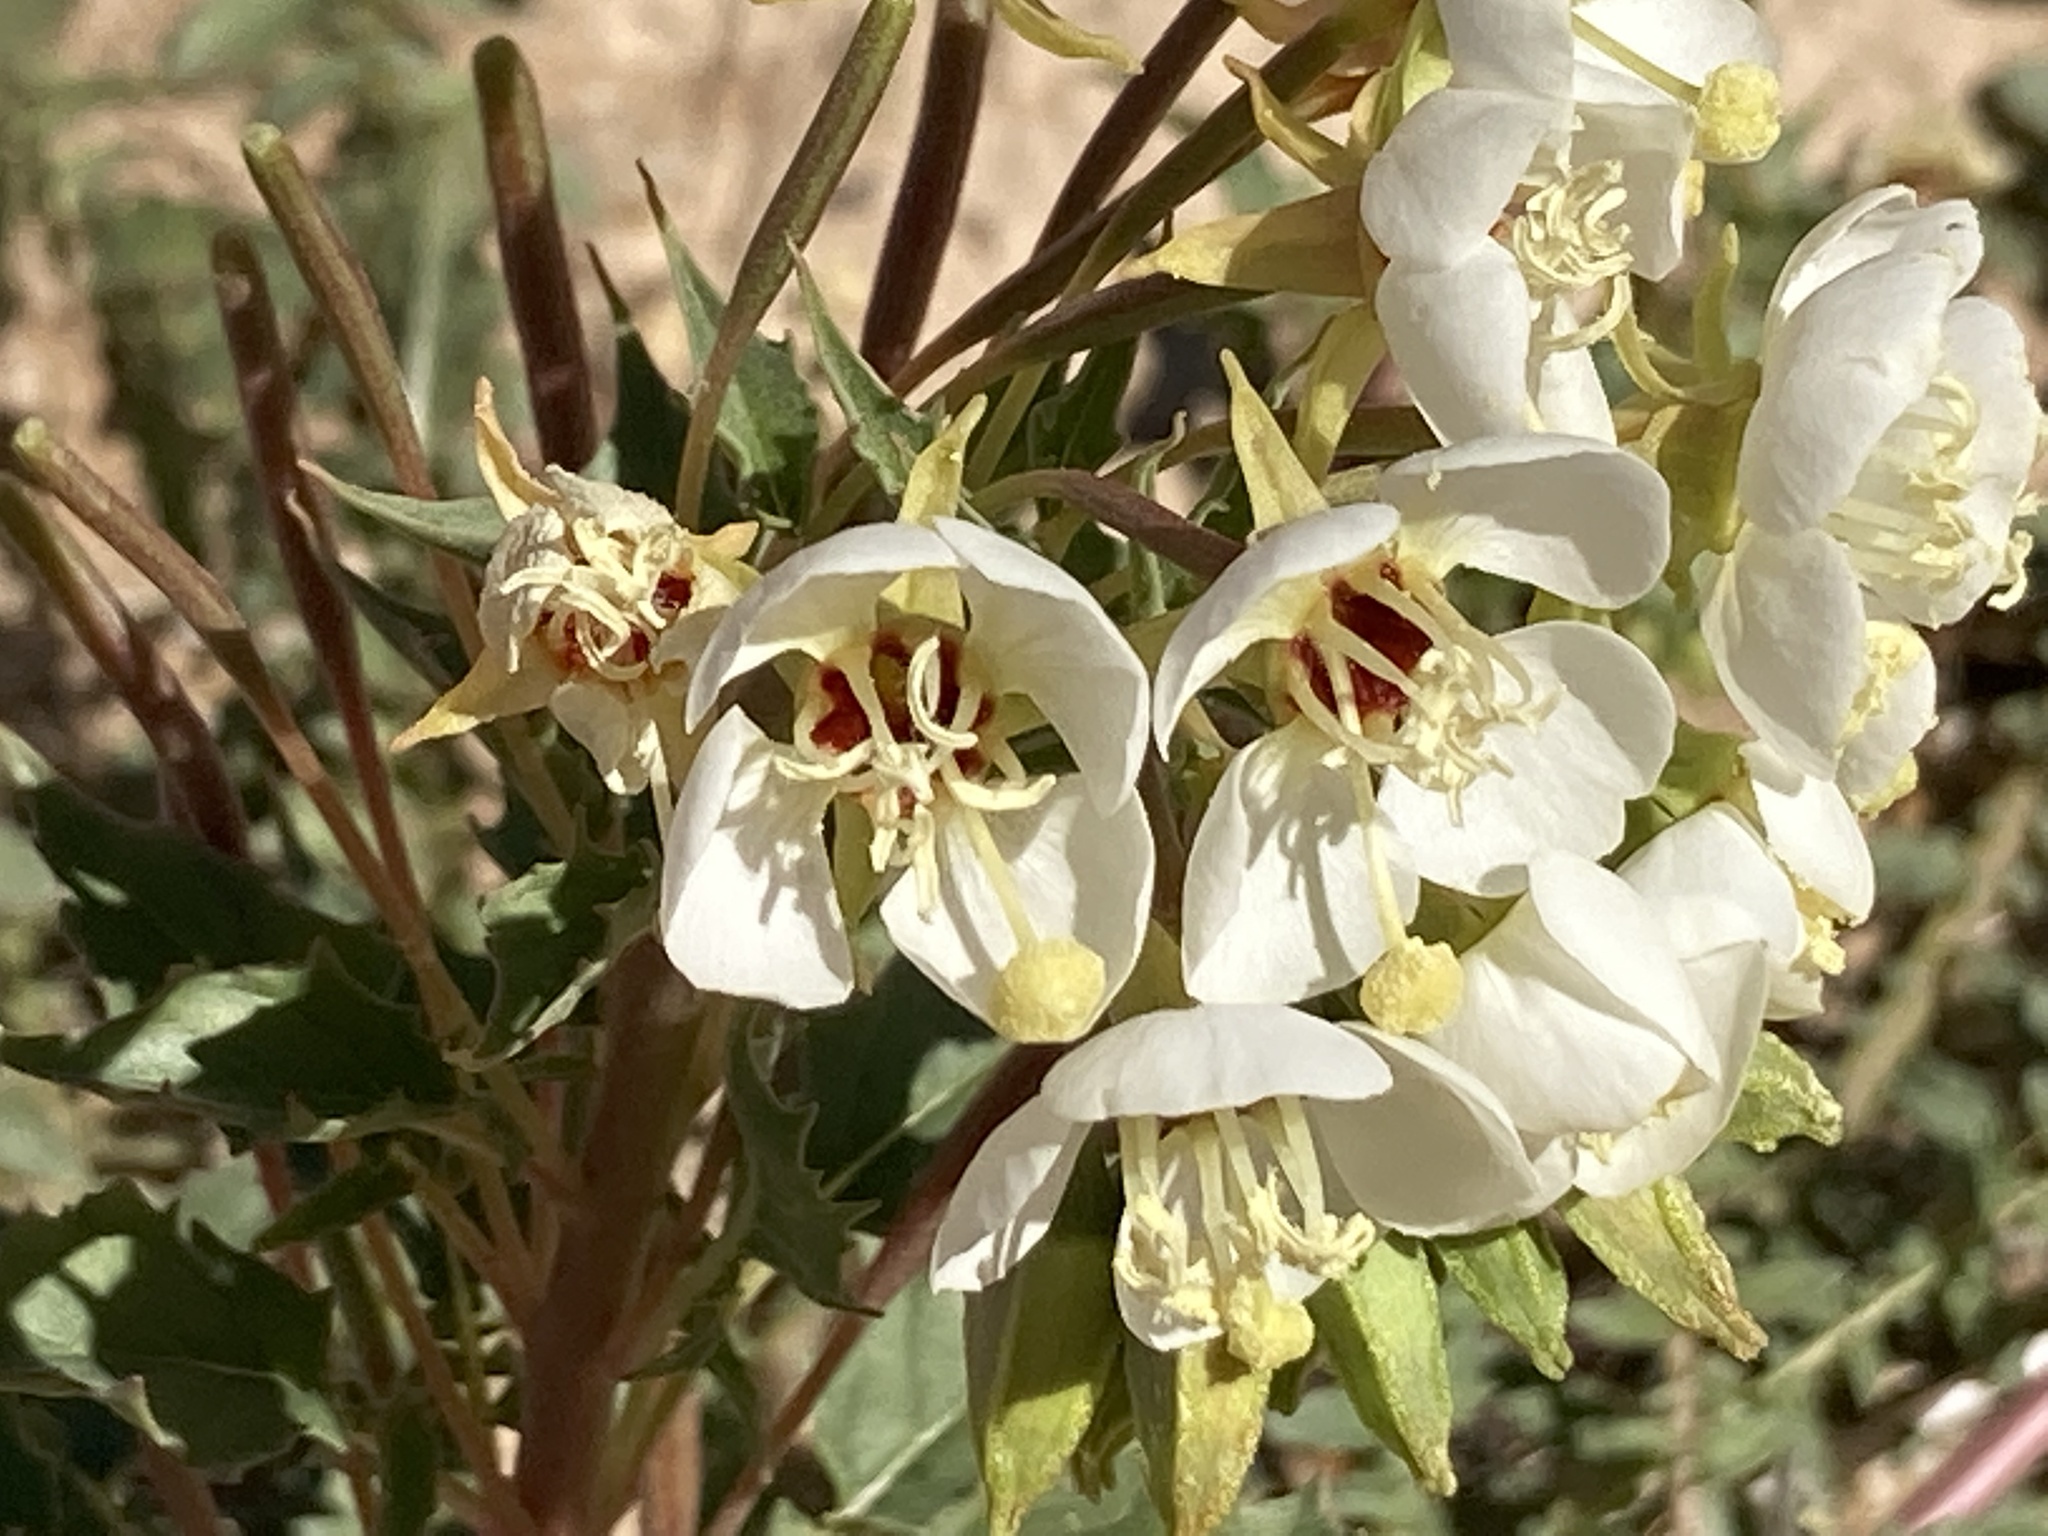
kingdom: Plantae
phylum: Tracheophyta
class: Magnoliopsida
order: Myrtales
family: Onagraceae
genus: Chylismia
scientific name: Chylismia claviformis
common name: Browneyes
